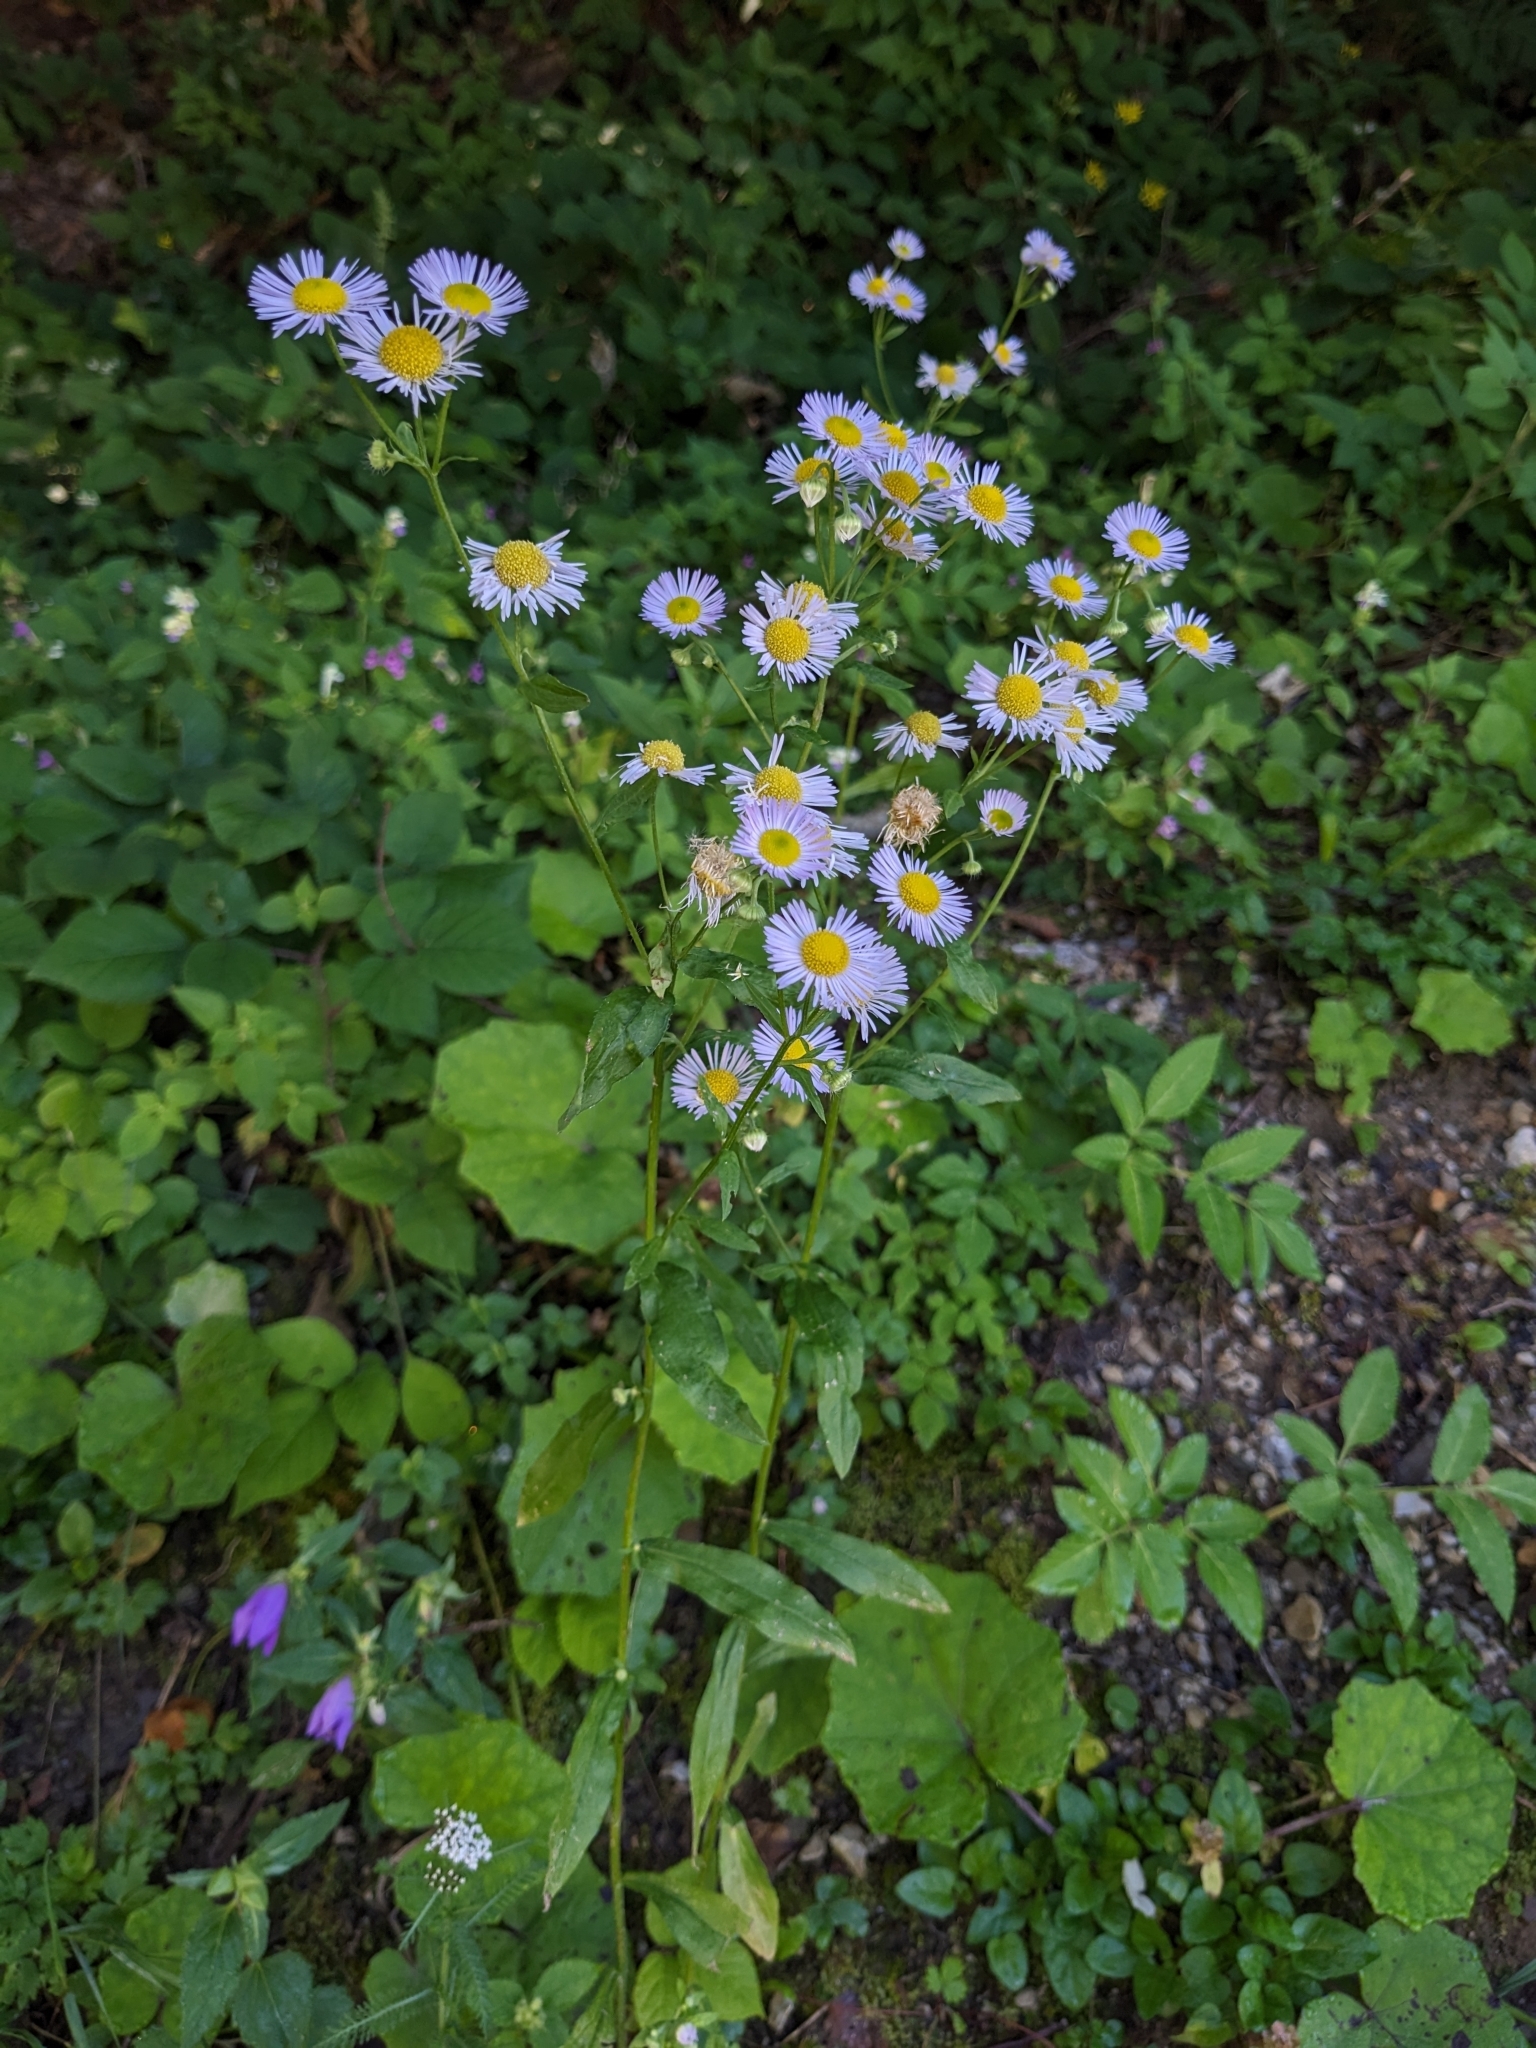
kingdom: Plantae
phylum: Tracheophyta
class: Magnoliopsida
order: Asterales
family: Asteraceae
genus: Erigeron
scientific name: Erigeron annuus
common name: Tall fleabane
